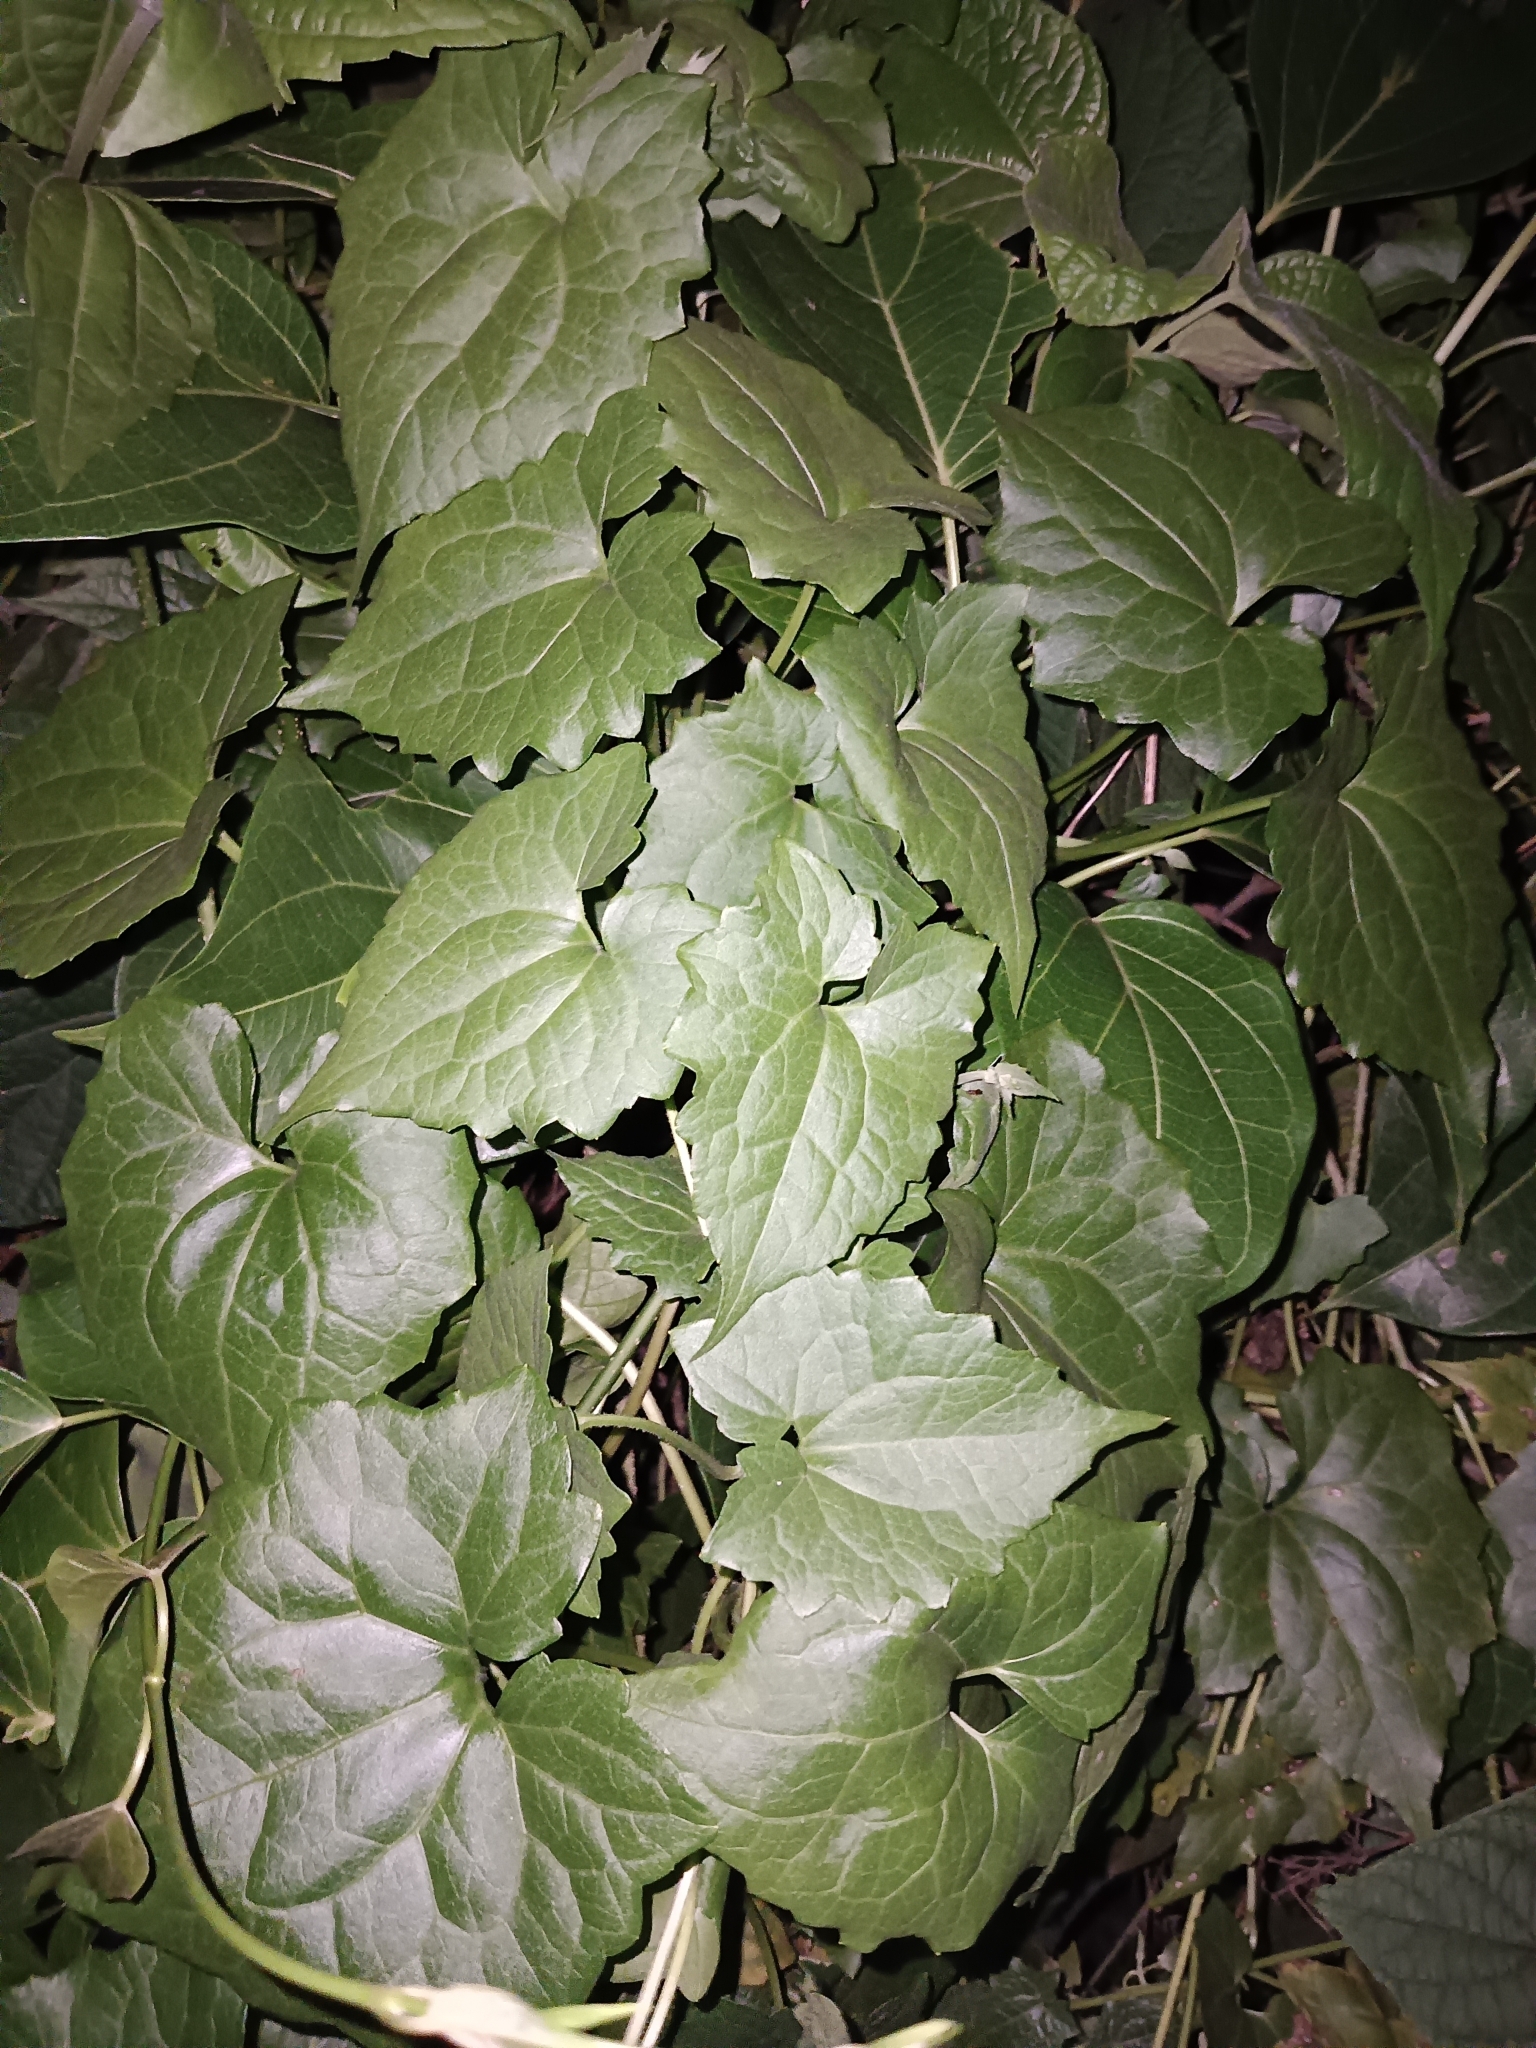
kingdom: Plantae
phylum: Tracheophyta
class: Magnoliopsida
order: Asterales
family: Asteraceae
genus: Mikania
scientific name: Mikania micrantha
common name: Mile-a-minute
